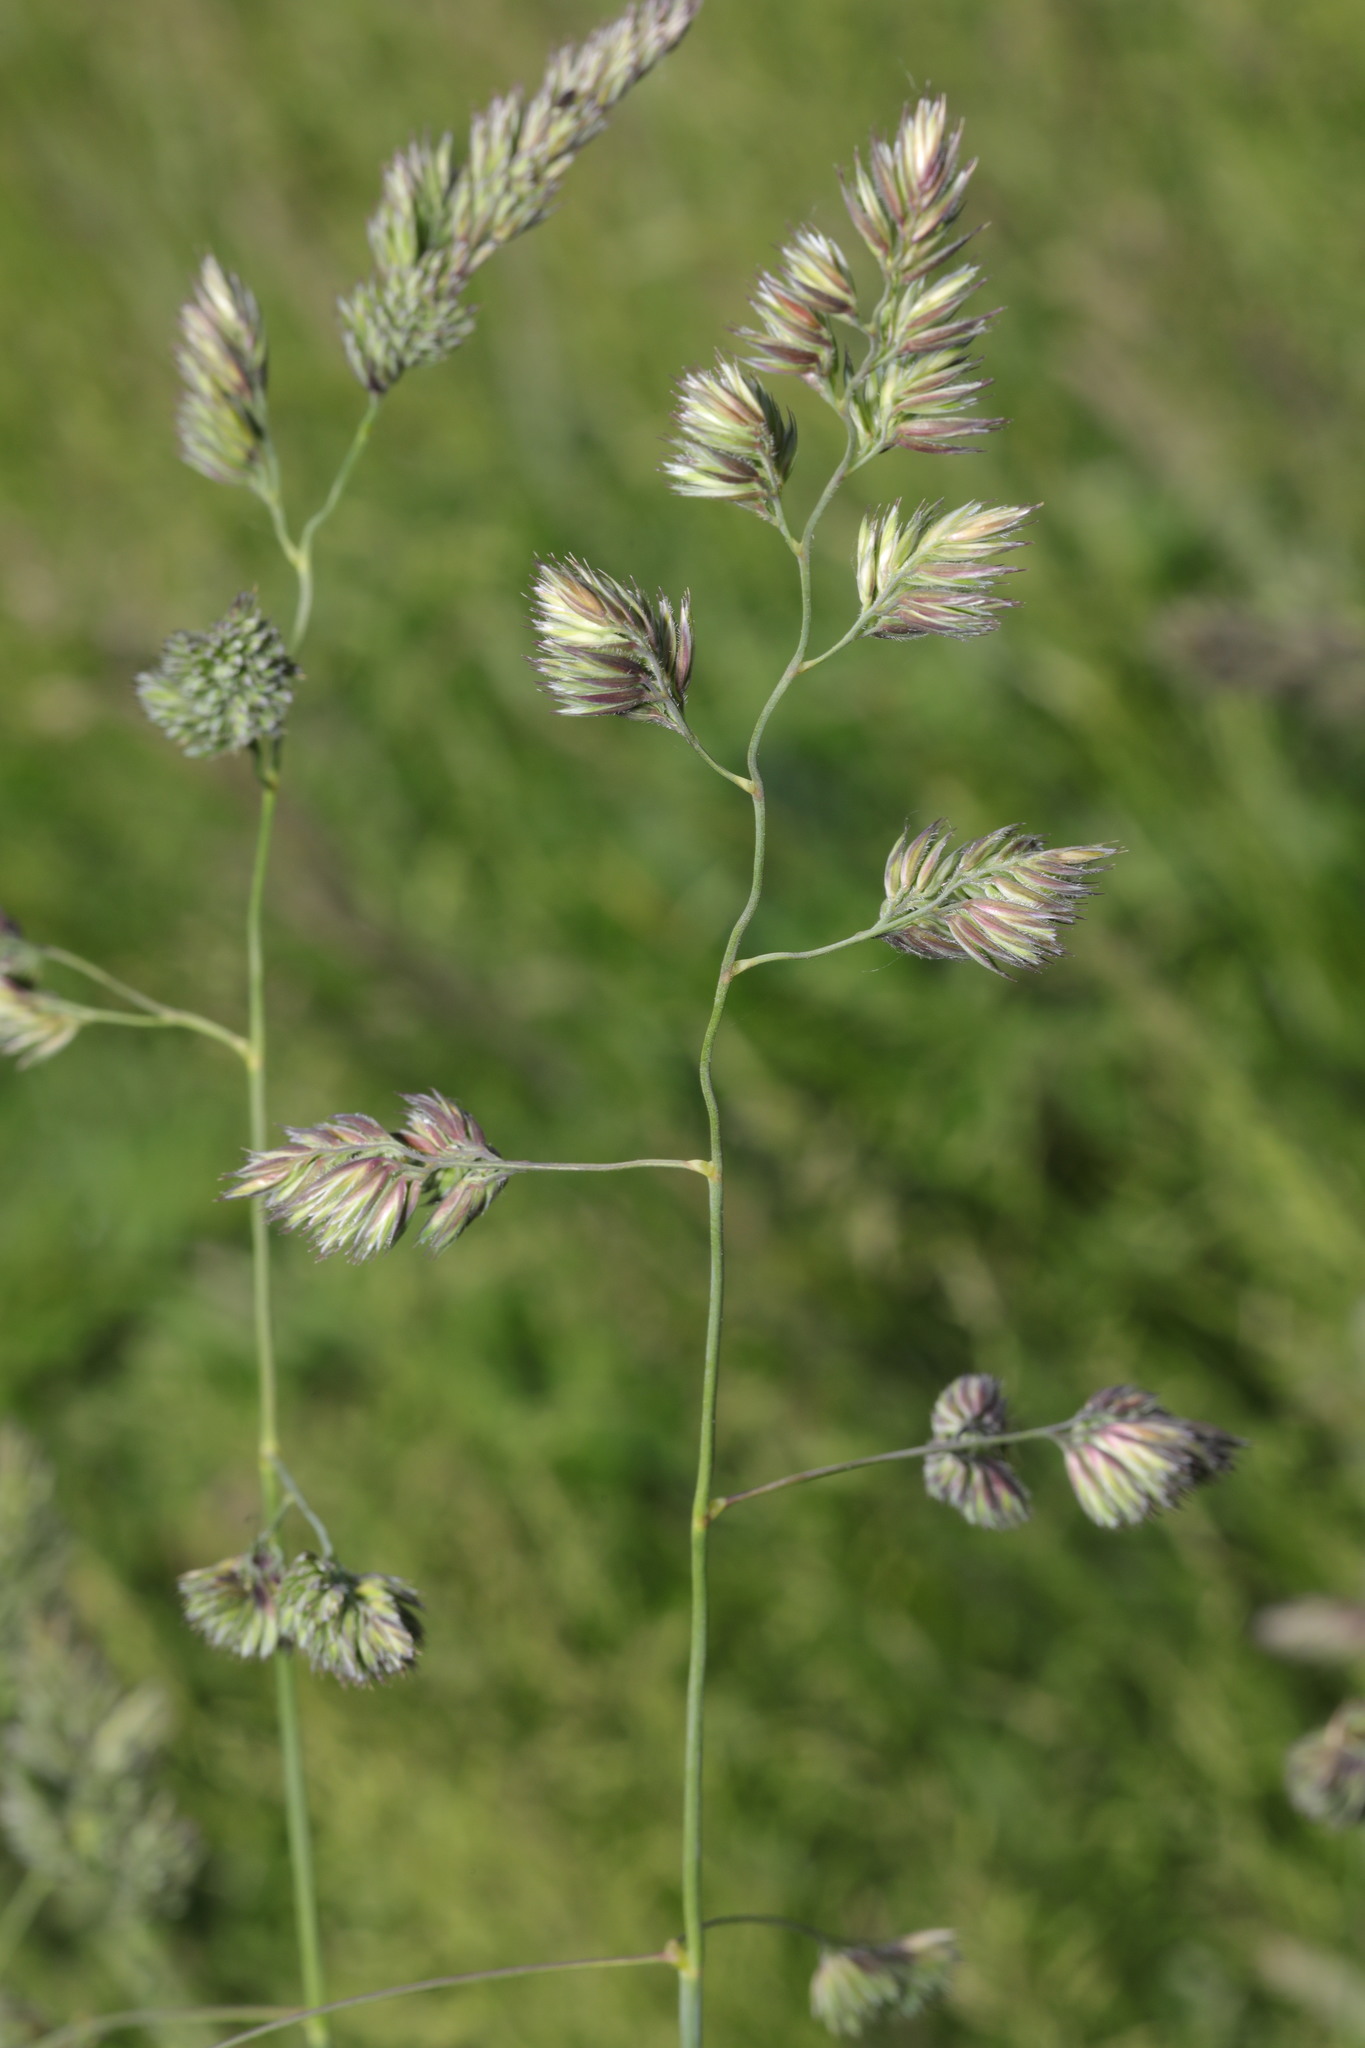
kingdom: Plantae
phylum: Tracheophyta
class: Liliopsida
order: Poales
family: Poaceae
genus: Dactylis
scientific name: Dactylis glomerata
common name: Orchardgrass
